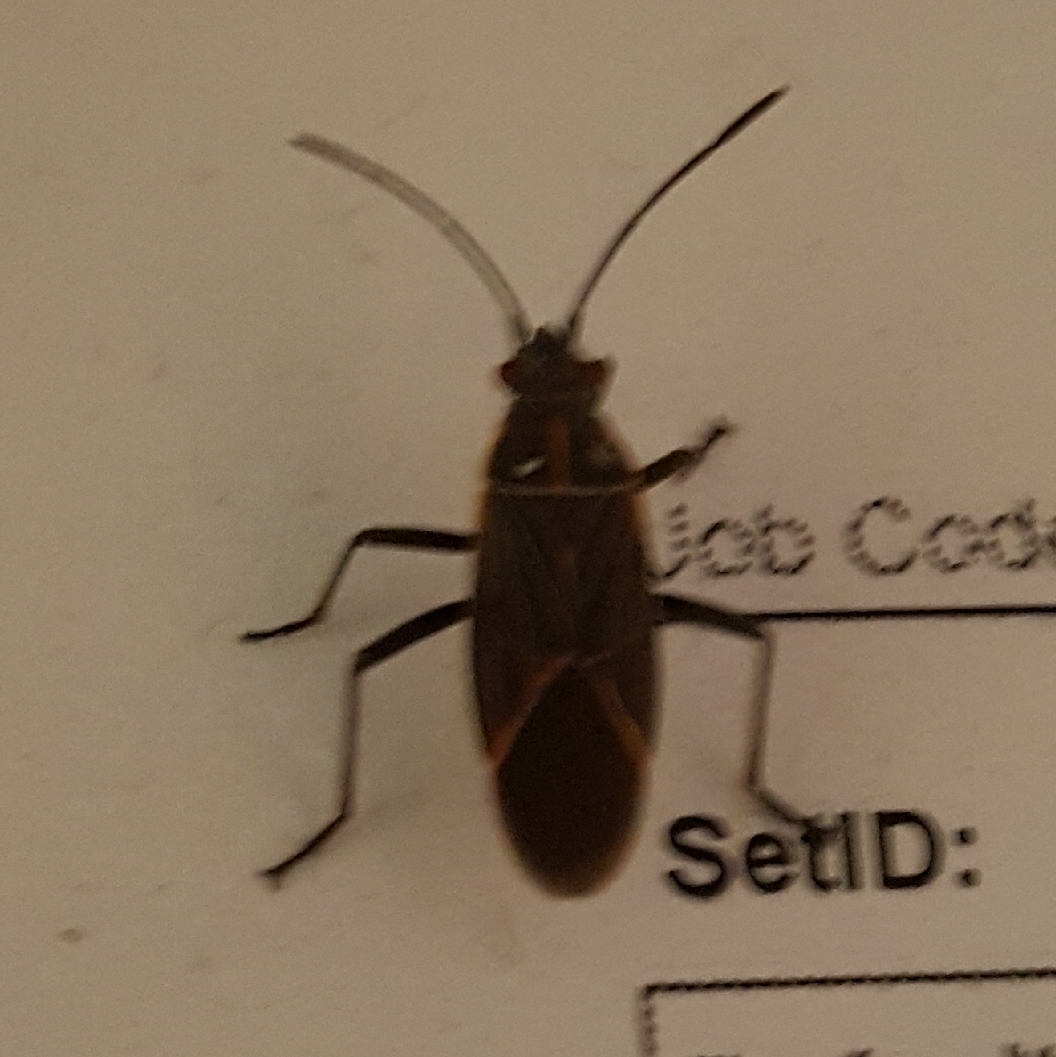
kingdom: Animalia
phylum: Arthropoda
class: Insecta
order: Hemiptera
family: Rhopalidae
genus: Boisea
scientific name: Boisea rubrolineata
